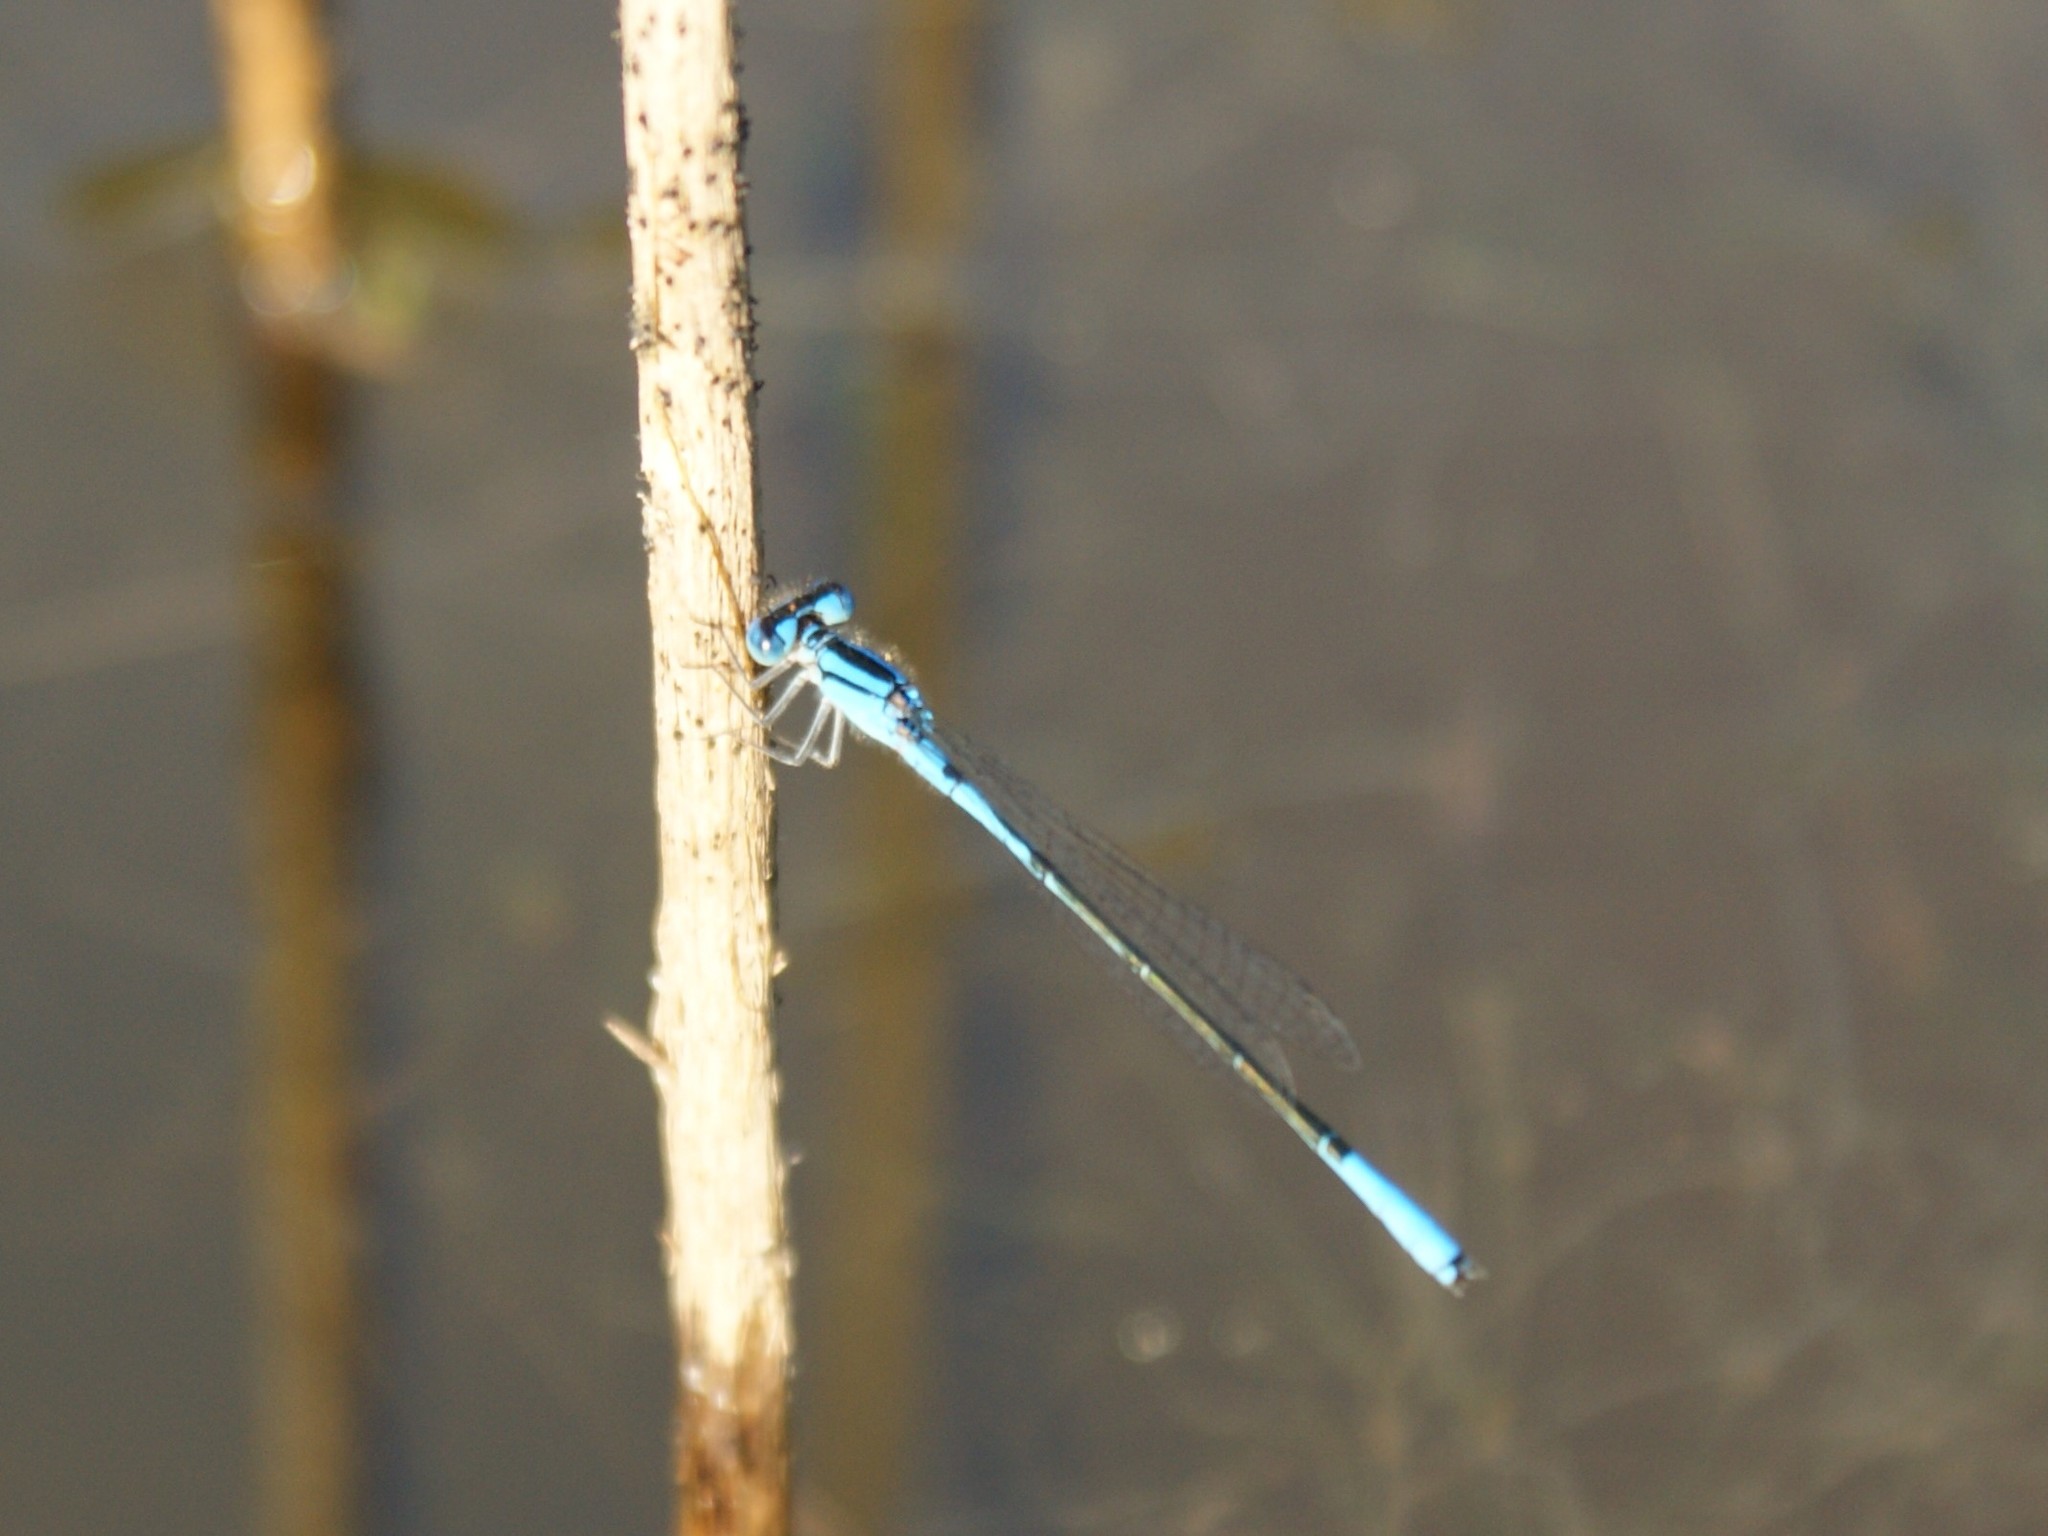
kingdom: Animalia
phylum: Arthropoda
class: Insecta
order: Odonata
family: Coenagrionidae
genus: Enallagma
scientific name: Enallagma aspersum
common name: Azure bluet
